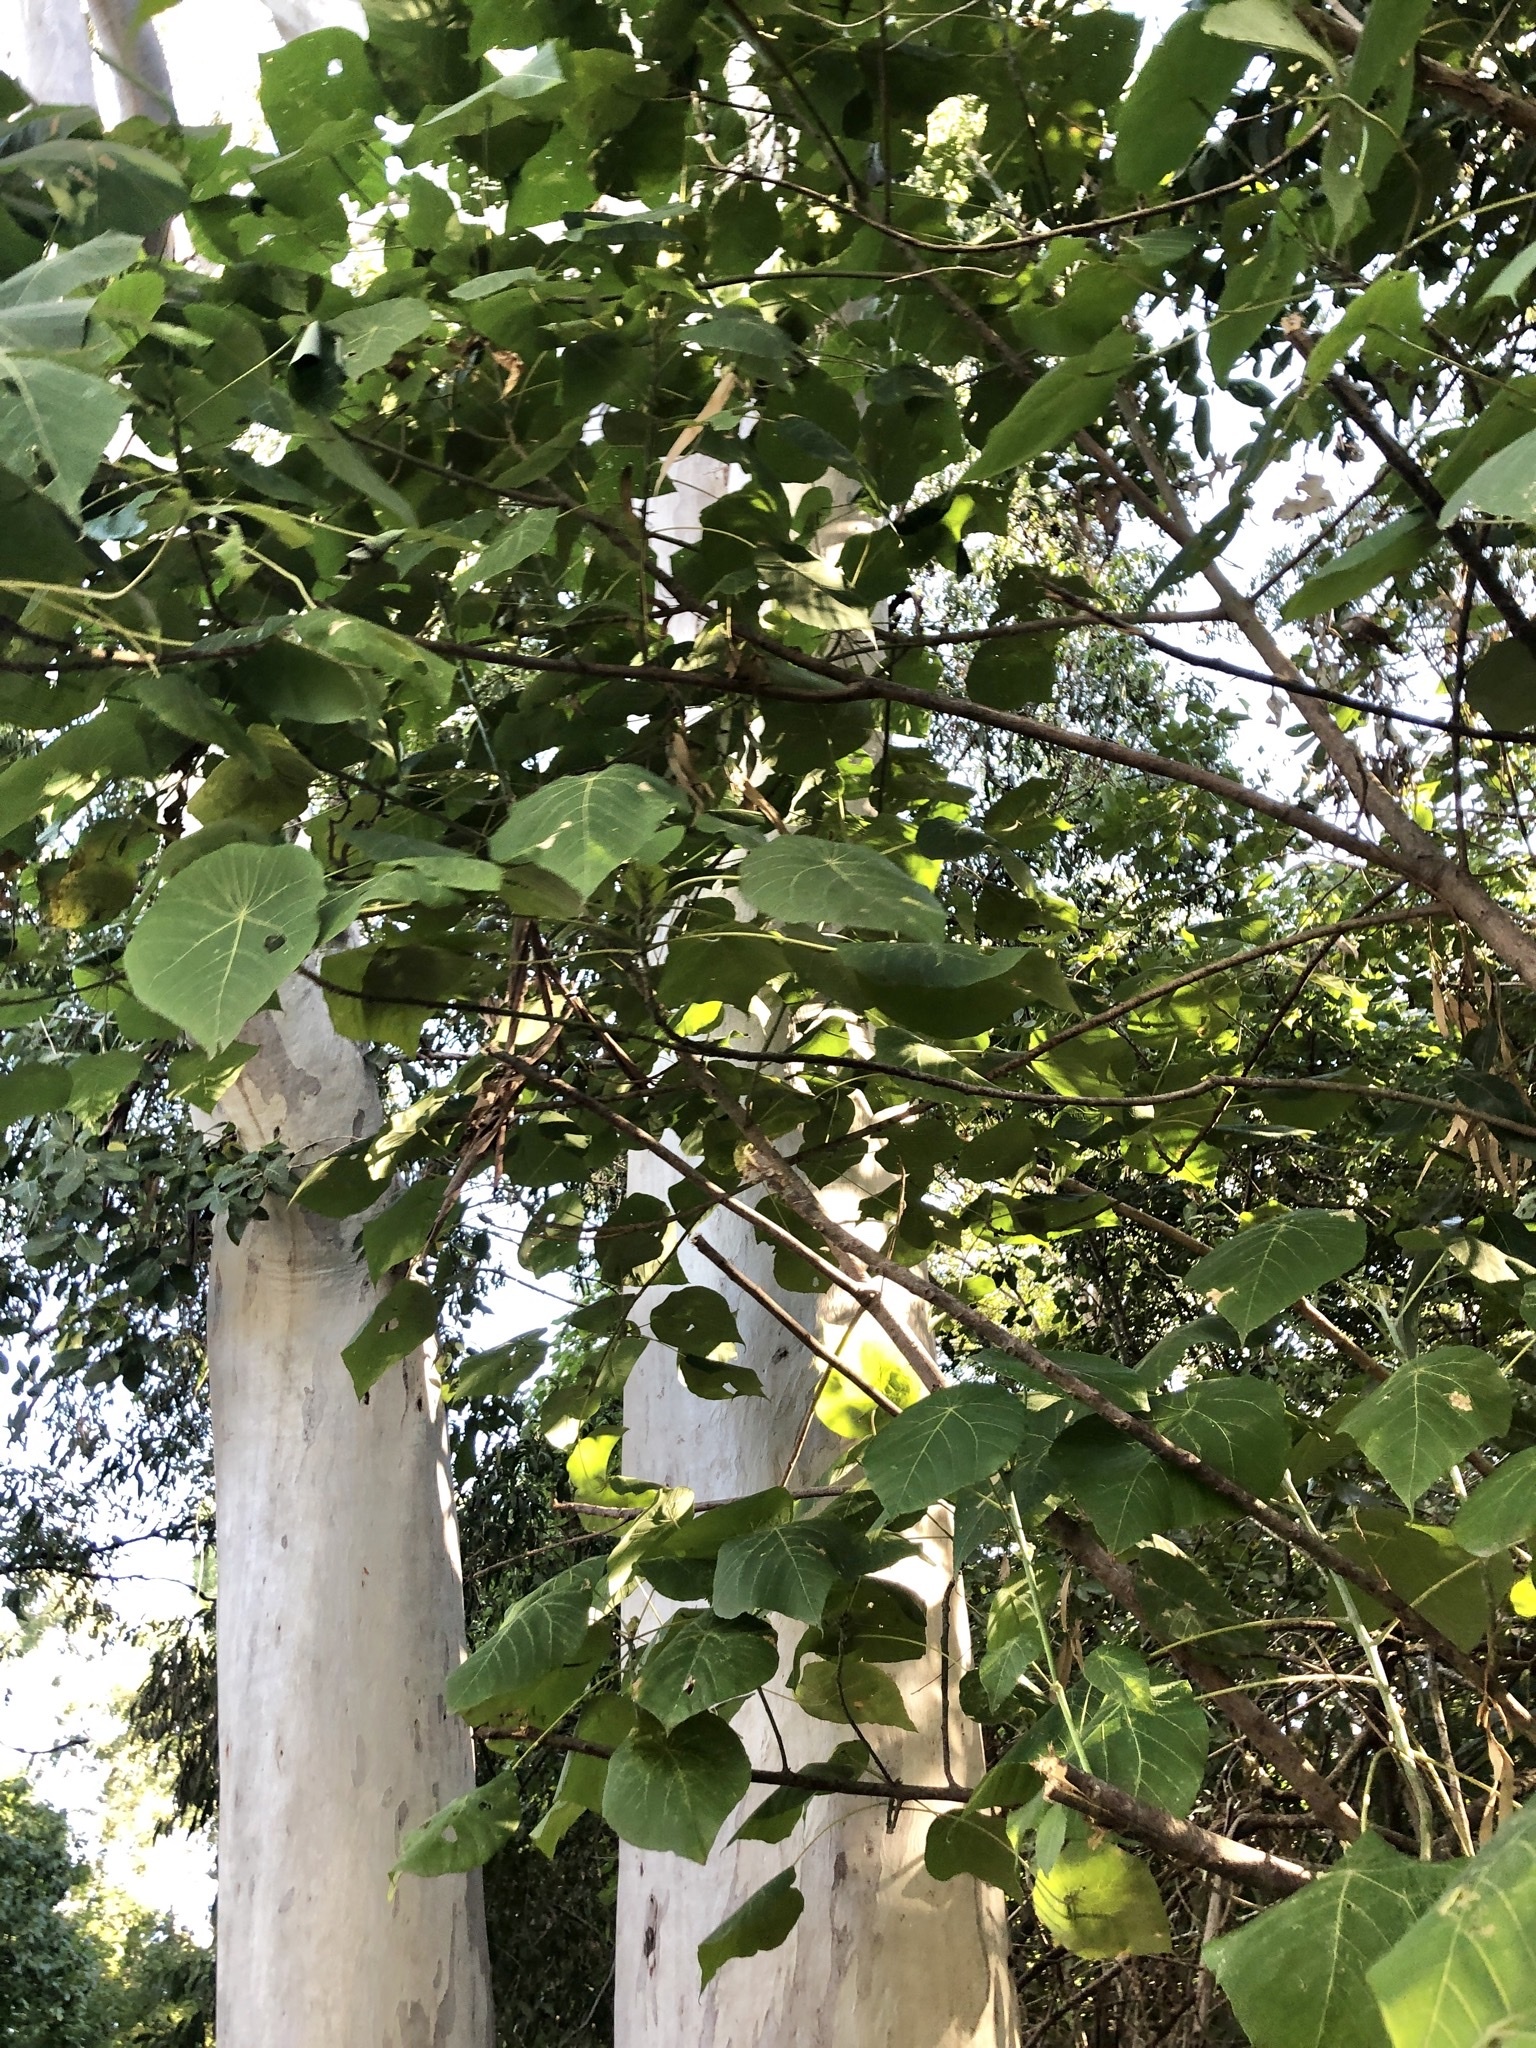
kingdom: Plantae
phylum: Tracheophyta
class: Magnoliopsida
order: Malpighiales
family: Euphorbiaceae
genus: Macaranga
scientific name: Macaranga tanarius
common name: Parasol leaf tree
